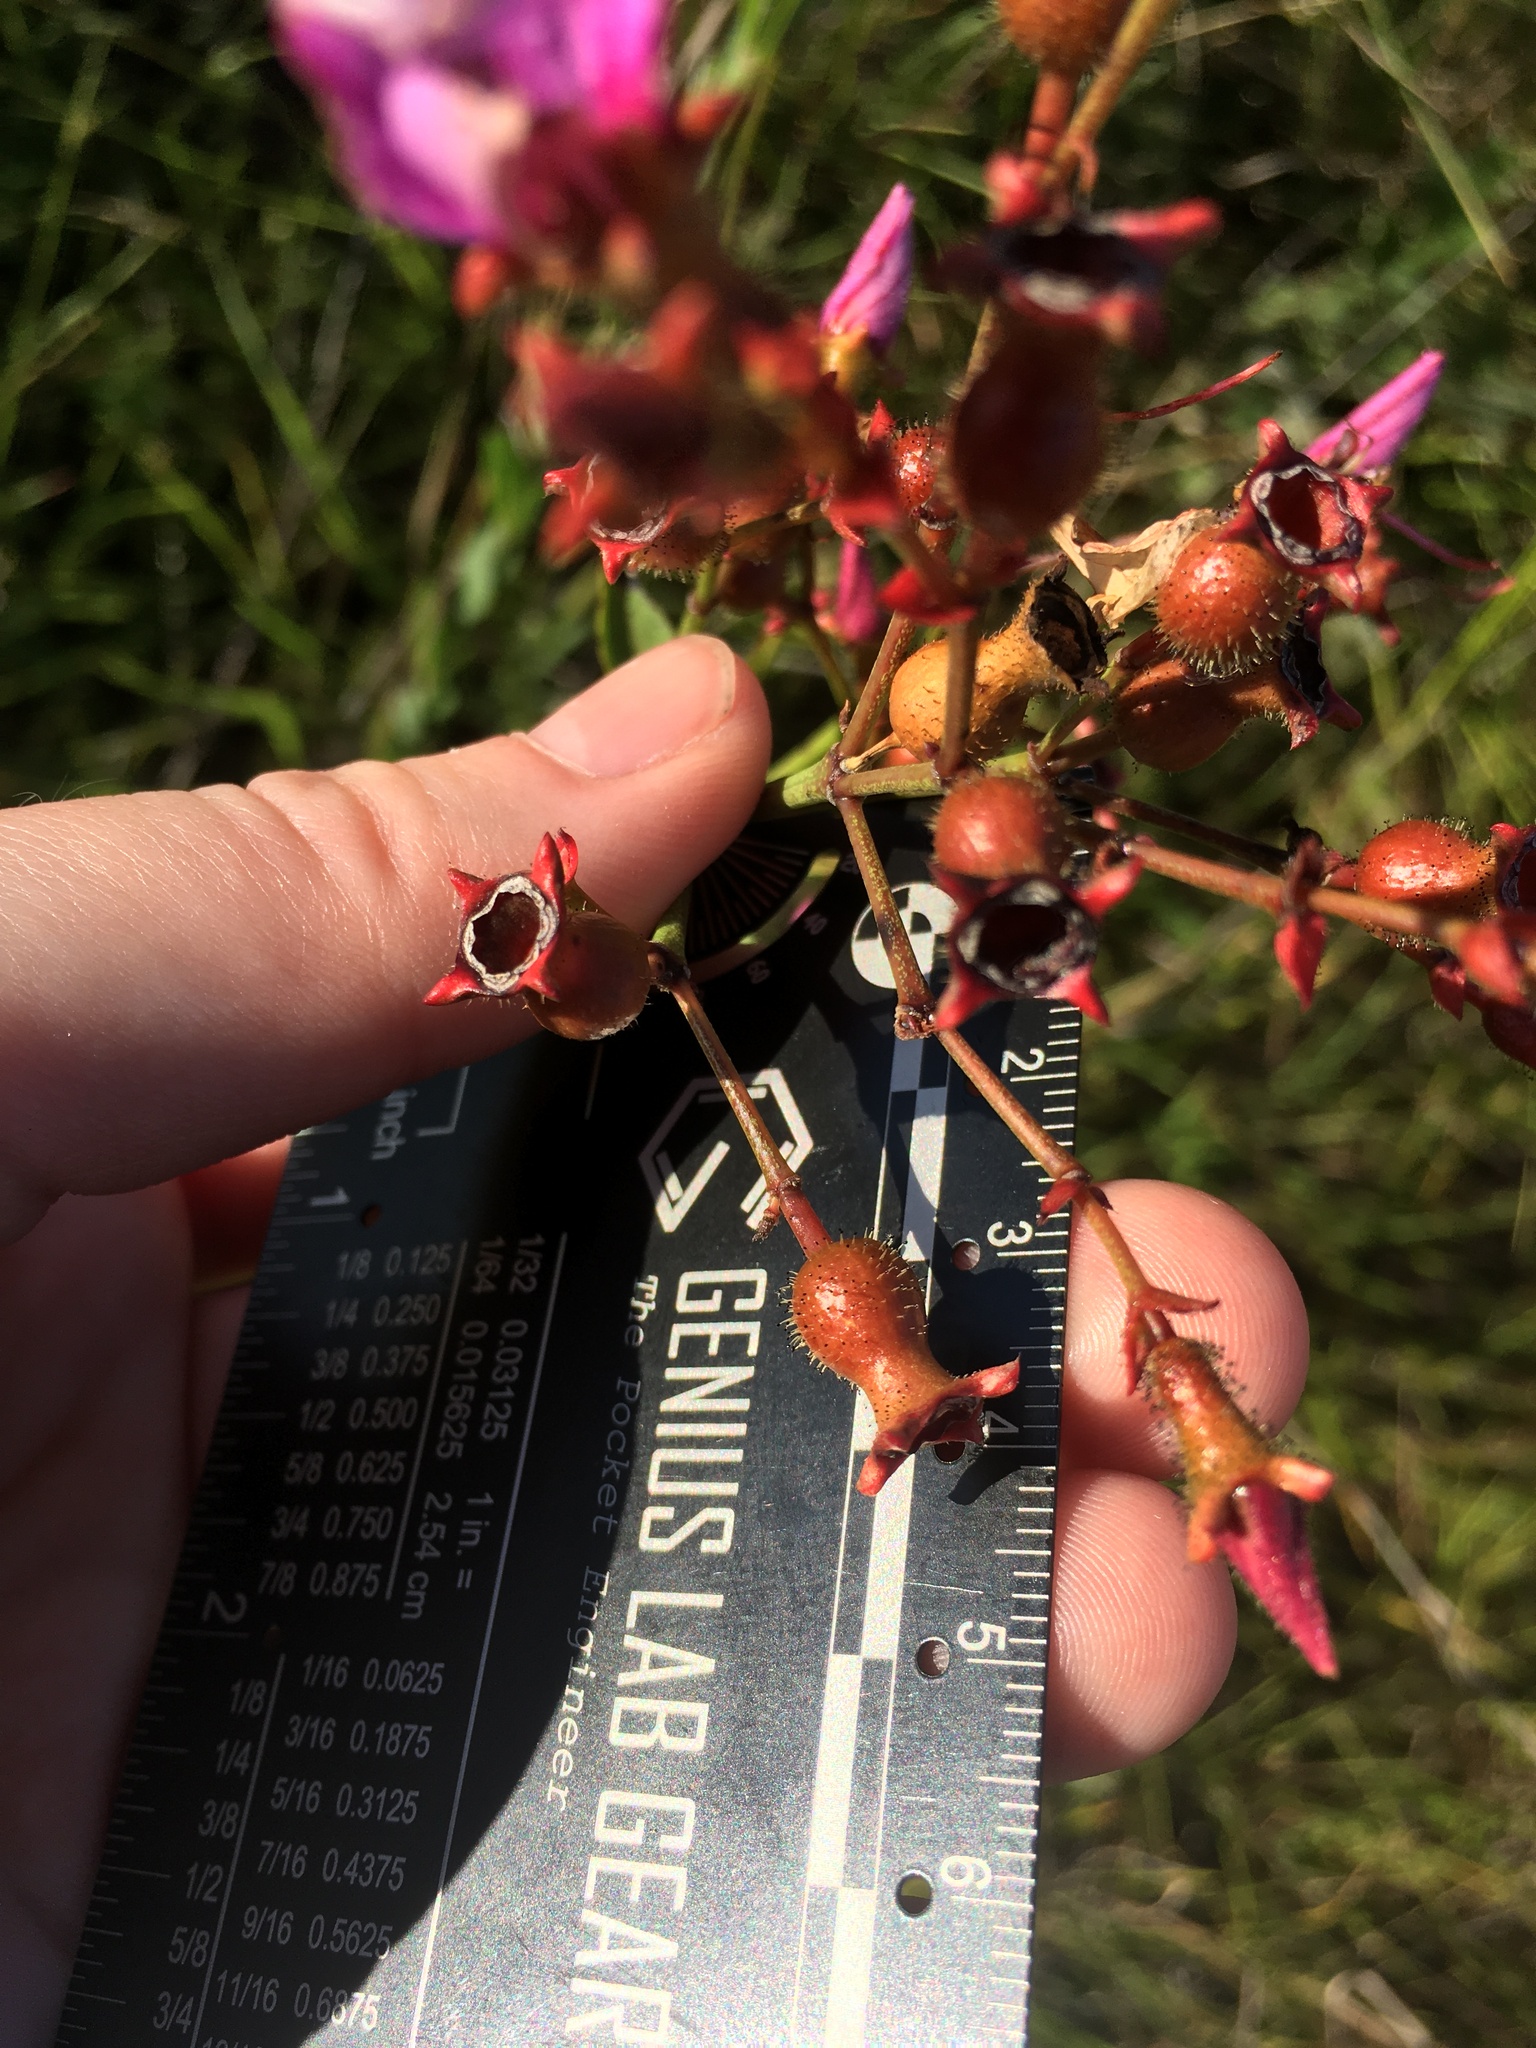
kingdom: Plantae
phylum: Tracheophyta
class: Magnoliopsida
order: Myrtales
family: Melastomataceae
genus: Rhexia
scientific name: Rhexia alifanus
